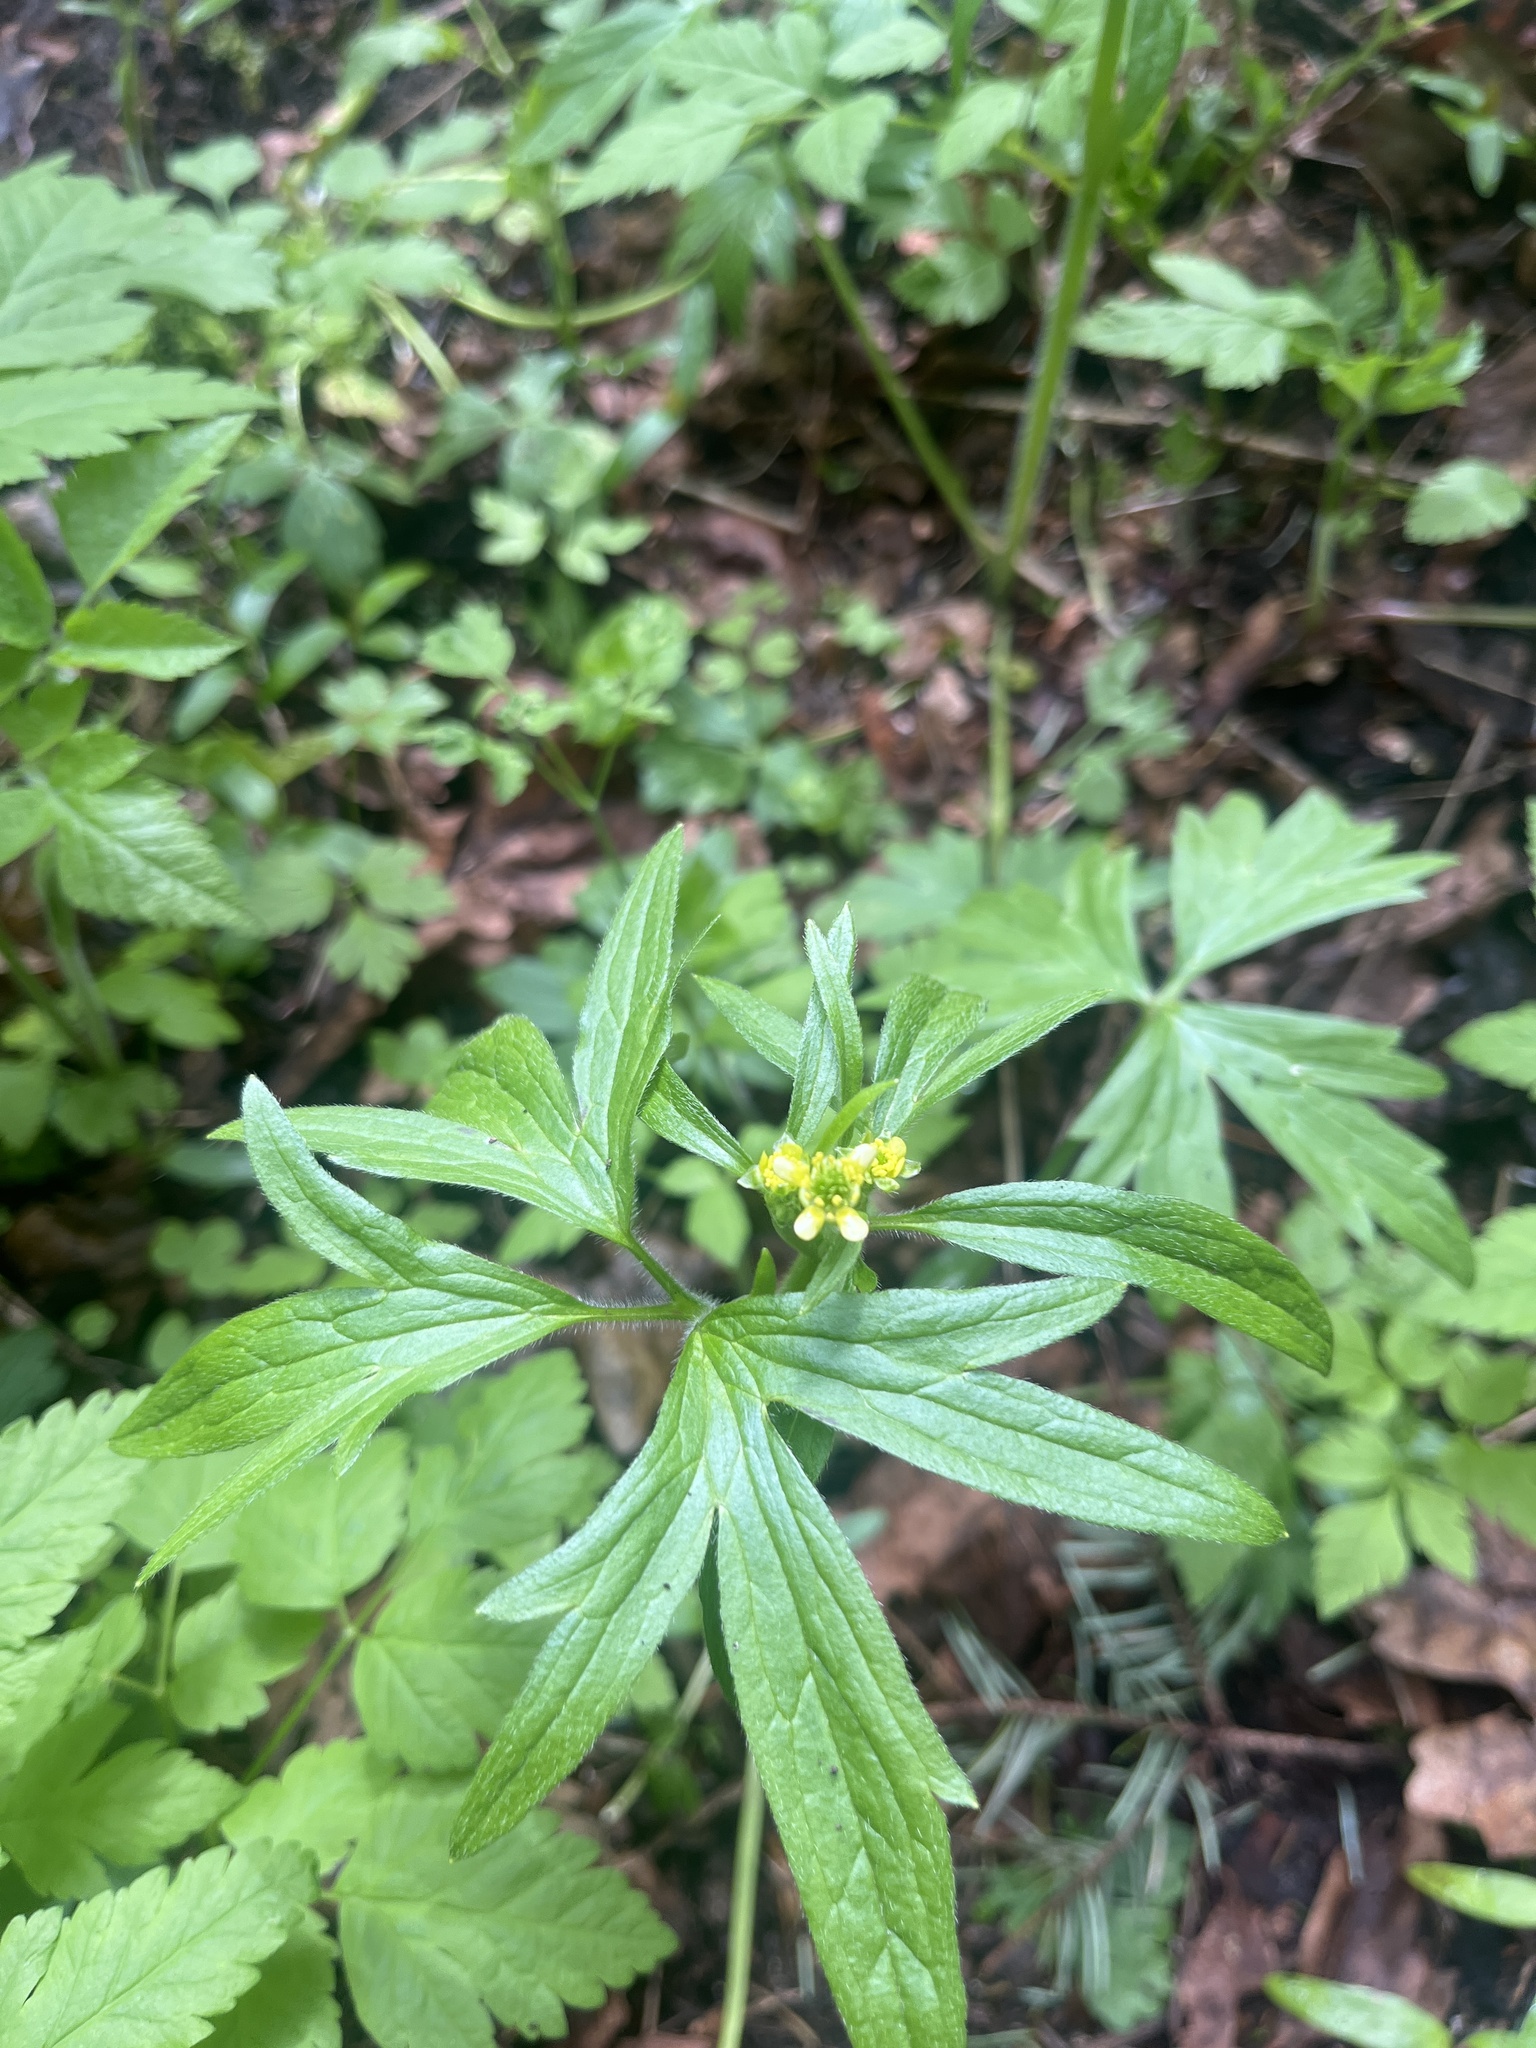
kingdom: Plantae
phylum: Tracheophyta
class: Magnoliopsida
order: Ranunculales
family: Ranunculaceae
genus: Ranunculus
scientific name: Ranunculus uncinatus
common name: Little buttercup
